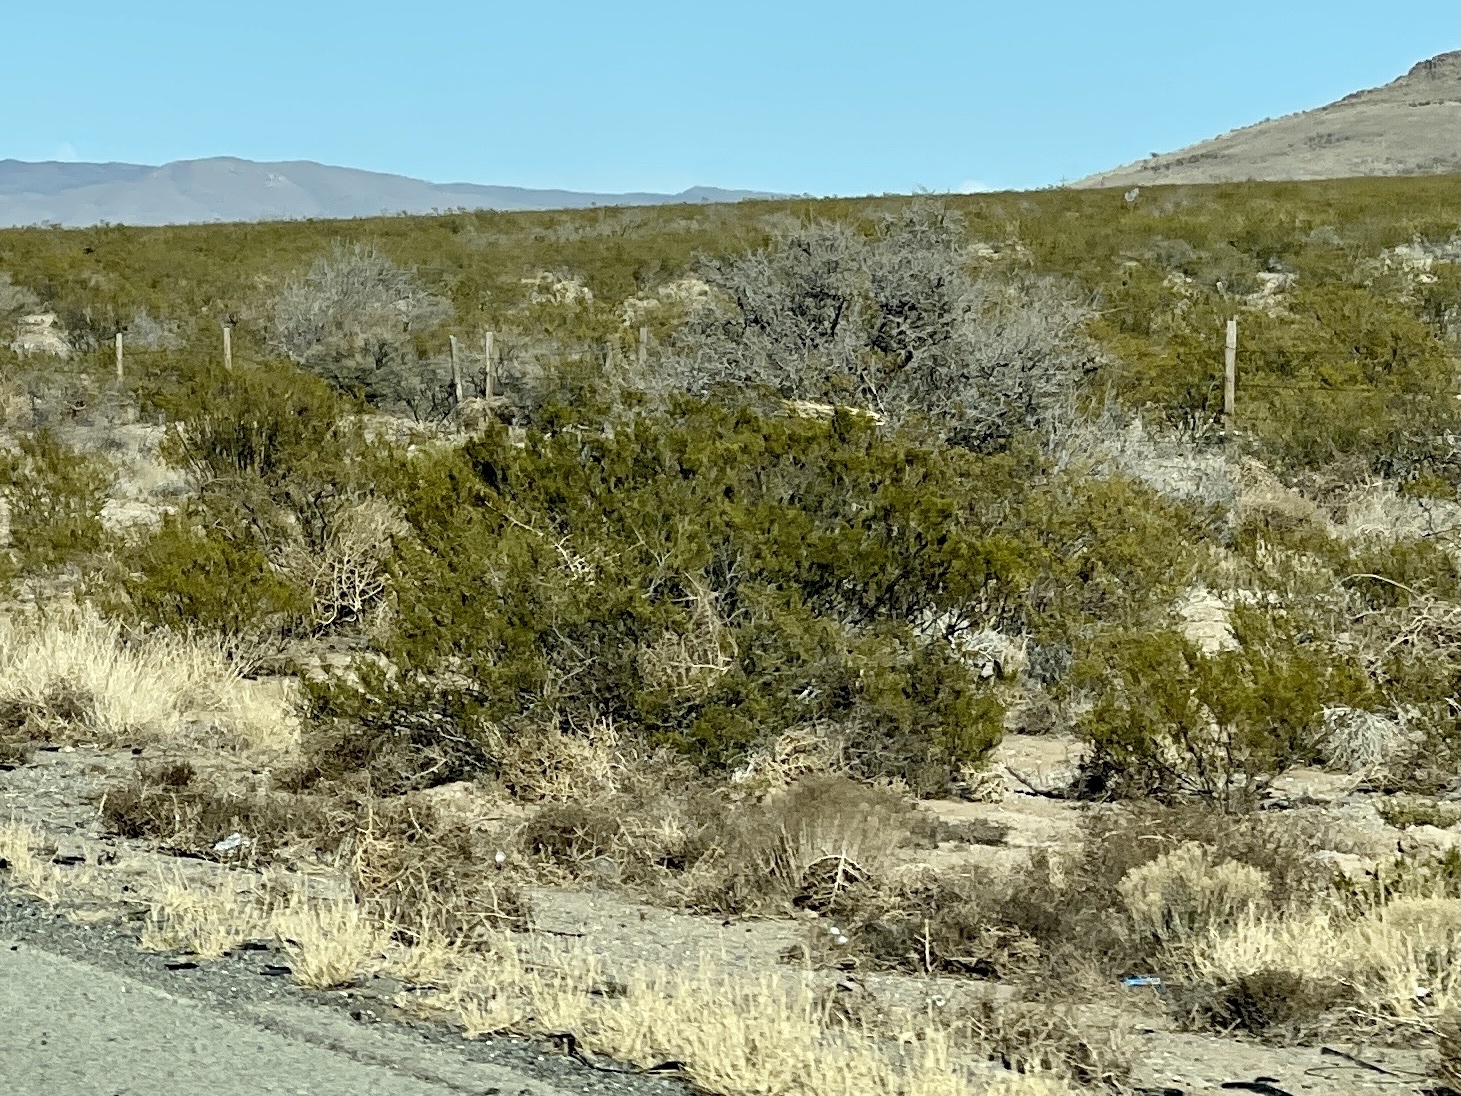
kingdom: Plantae
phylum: Tracheophyta
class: Magnoliopsida
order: Zygophyllales
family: Zygophyllaceae
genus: Larrea
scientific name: Larrea tridentata
